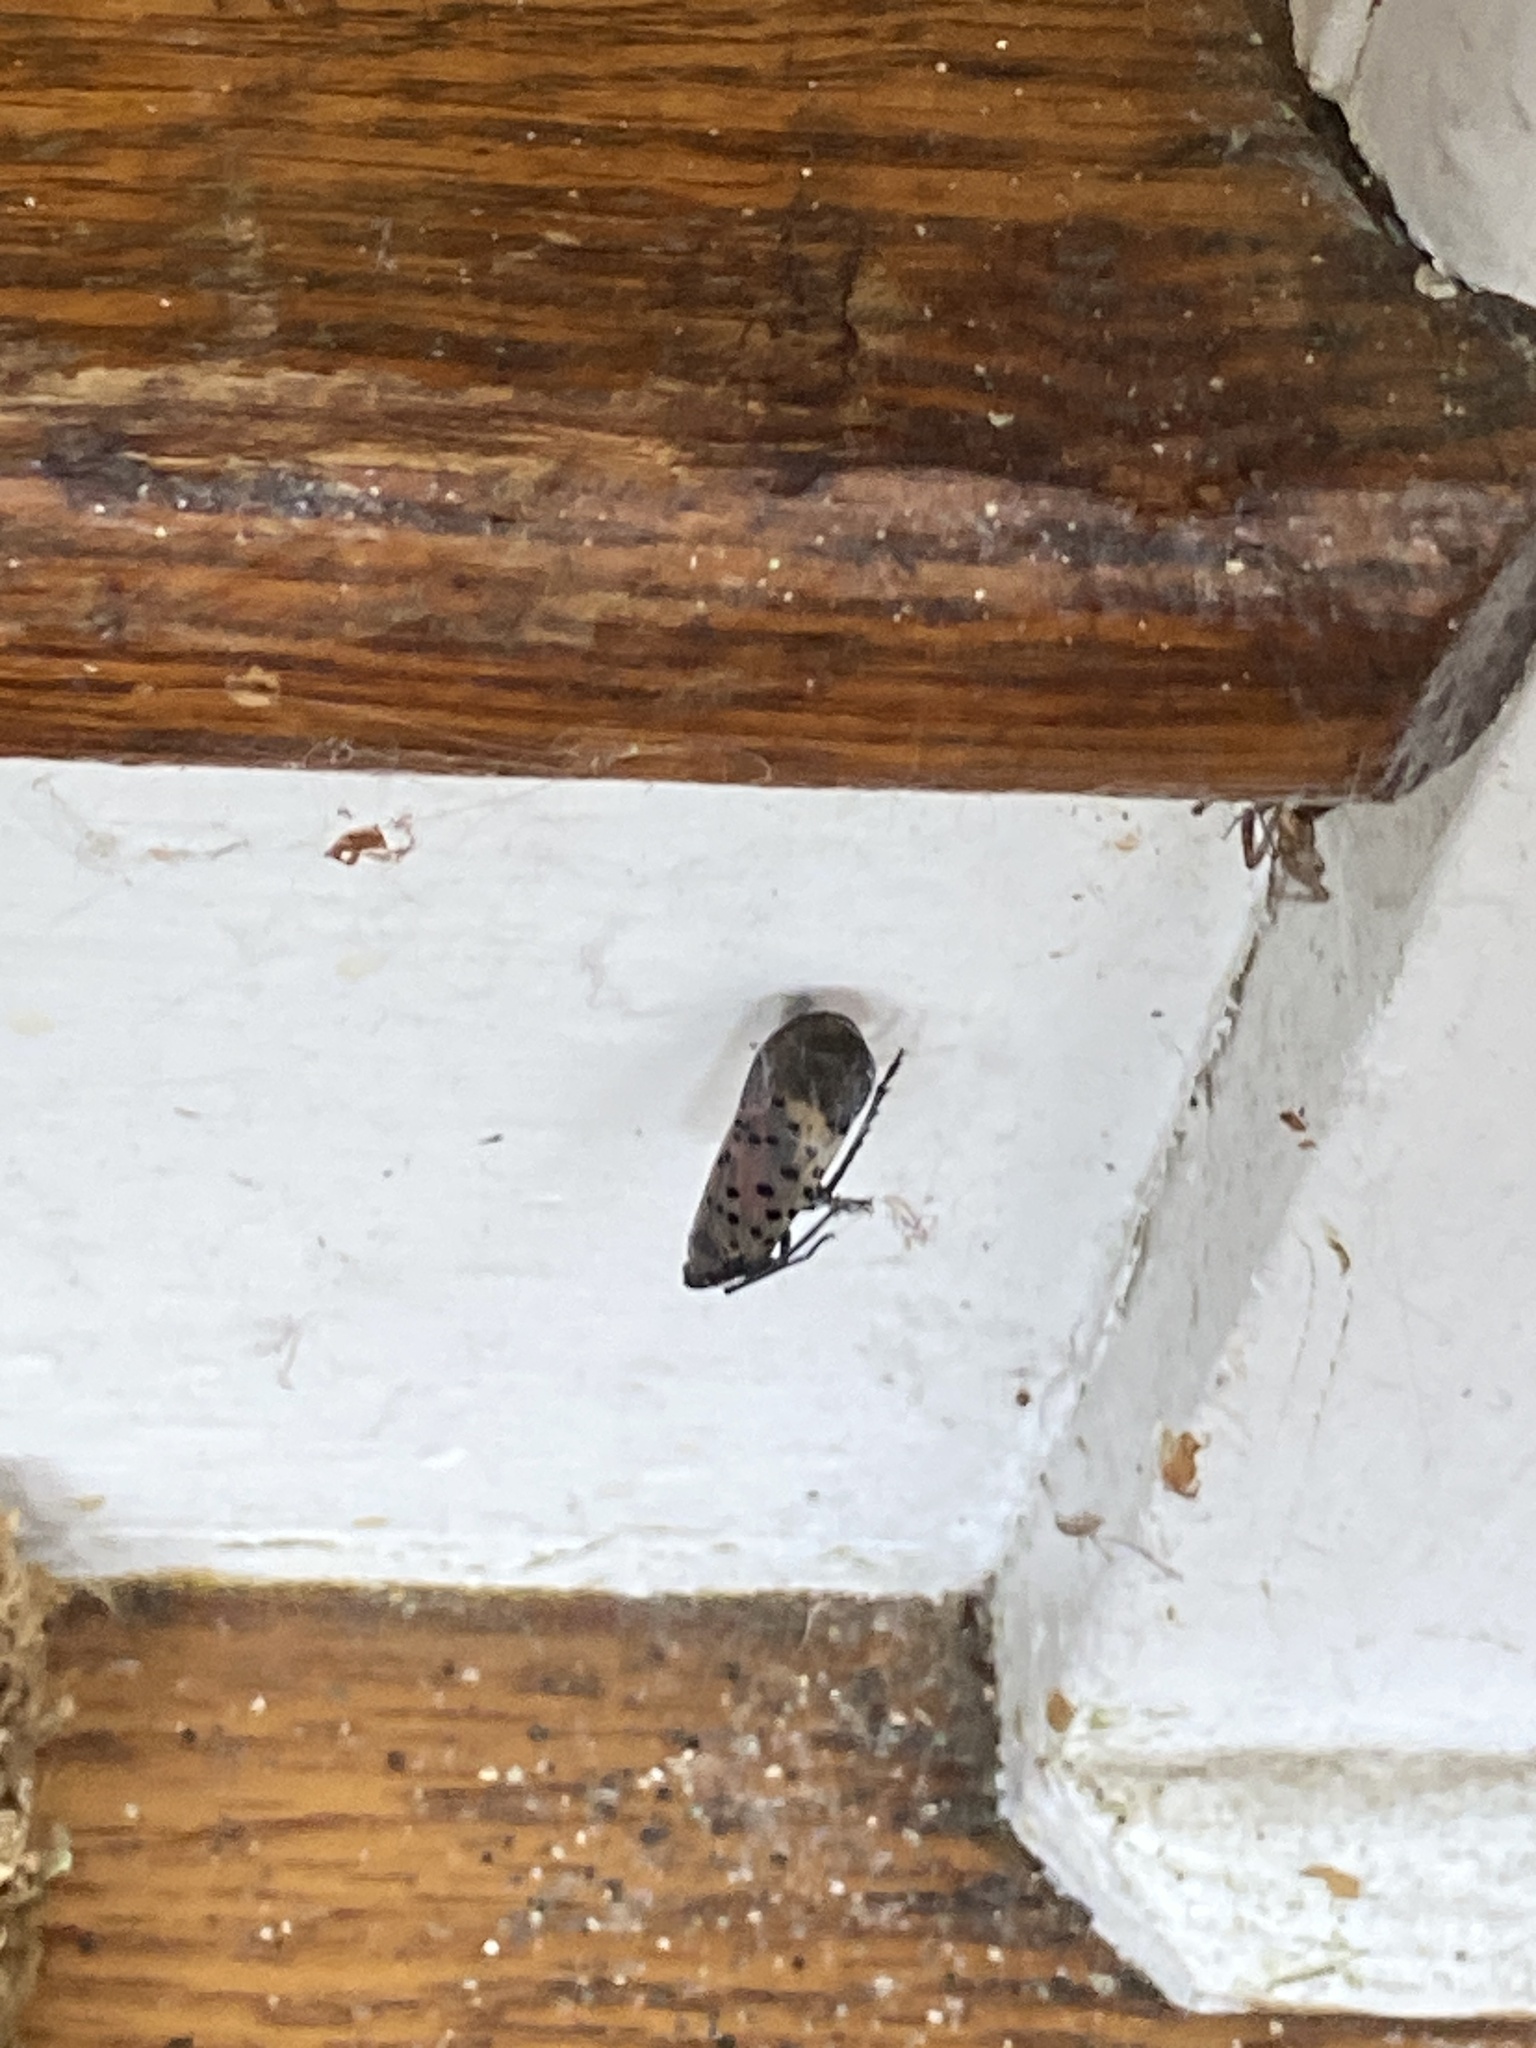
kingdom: Animalia
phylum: Arthropoda
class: Insecta
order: Hemiptera
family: Fulgoridae
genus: Lycorma
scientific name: Lycorma delicatula
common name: Spotted lanternfly
